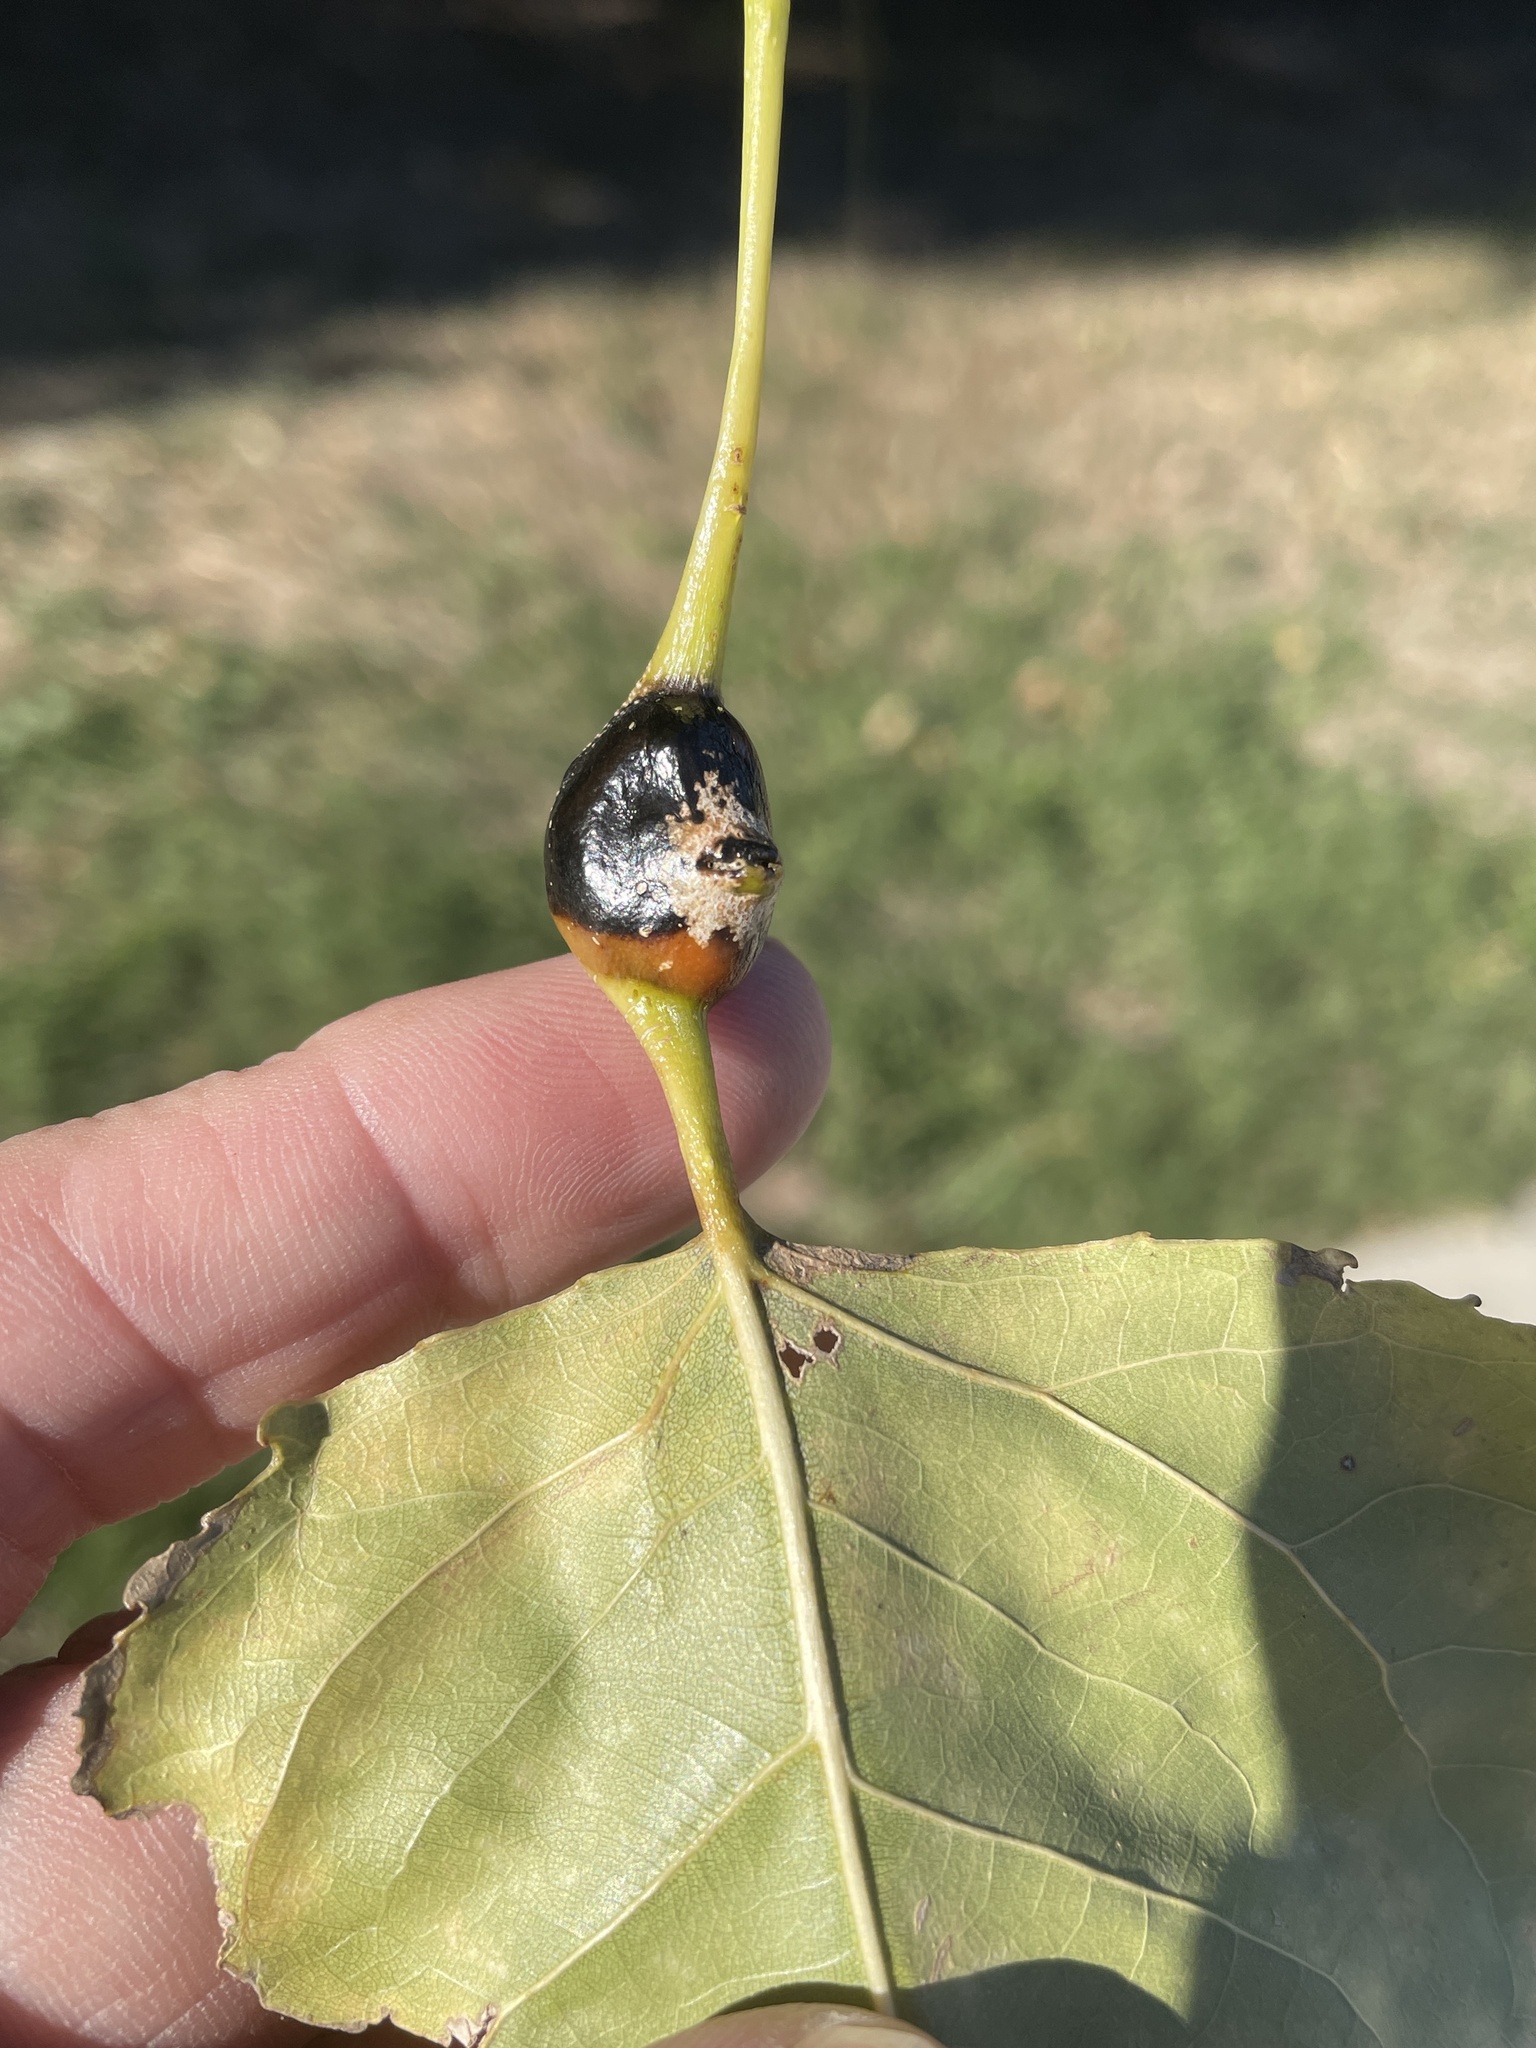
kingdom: Animalia
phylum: Arthropoda
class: Insecta
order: Hemiptera
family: Aphididae
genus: Pemphigus
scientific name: Pemphigus populitransversus
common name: Poplar petiolegall aphid
